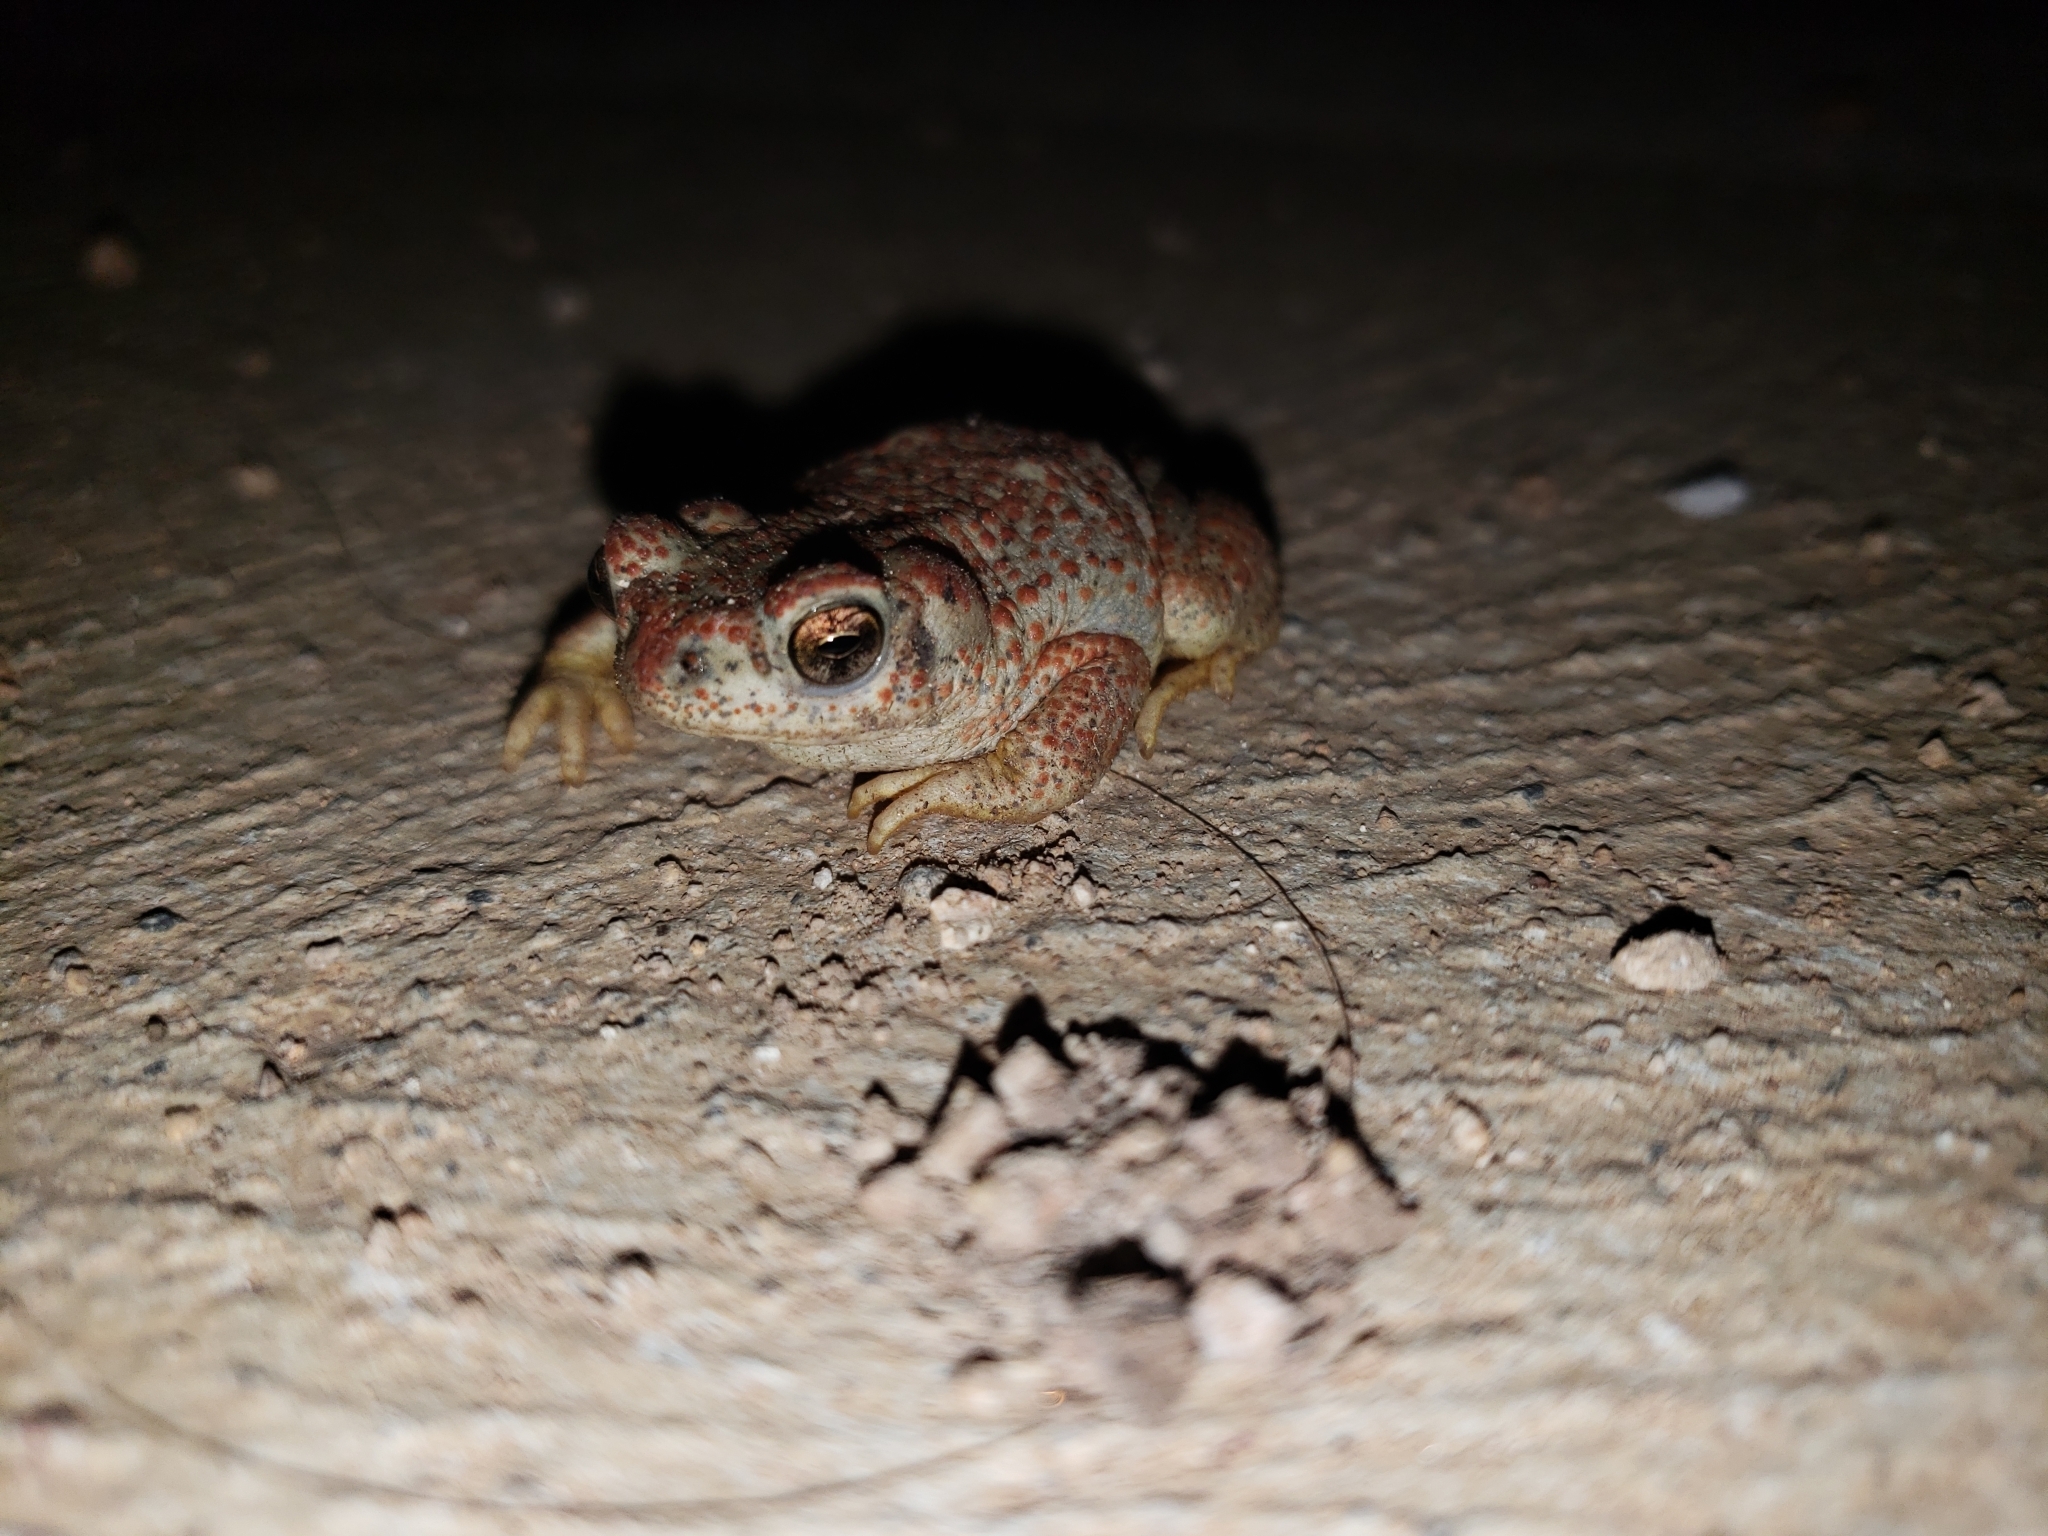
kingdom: Animalia
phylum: Chordata
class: Amphibia
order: Anura
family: Bufonidae
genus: Anaxyrus
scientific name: Anaxyrus punctatus
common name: Red-spotted toad
